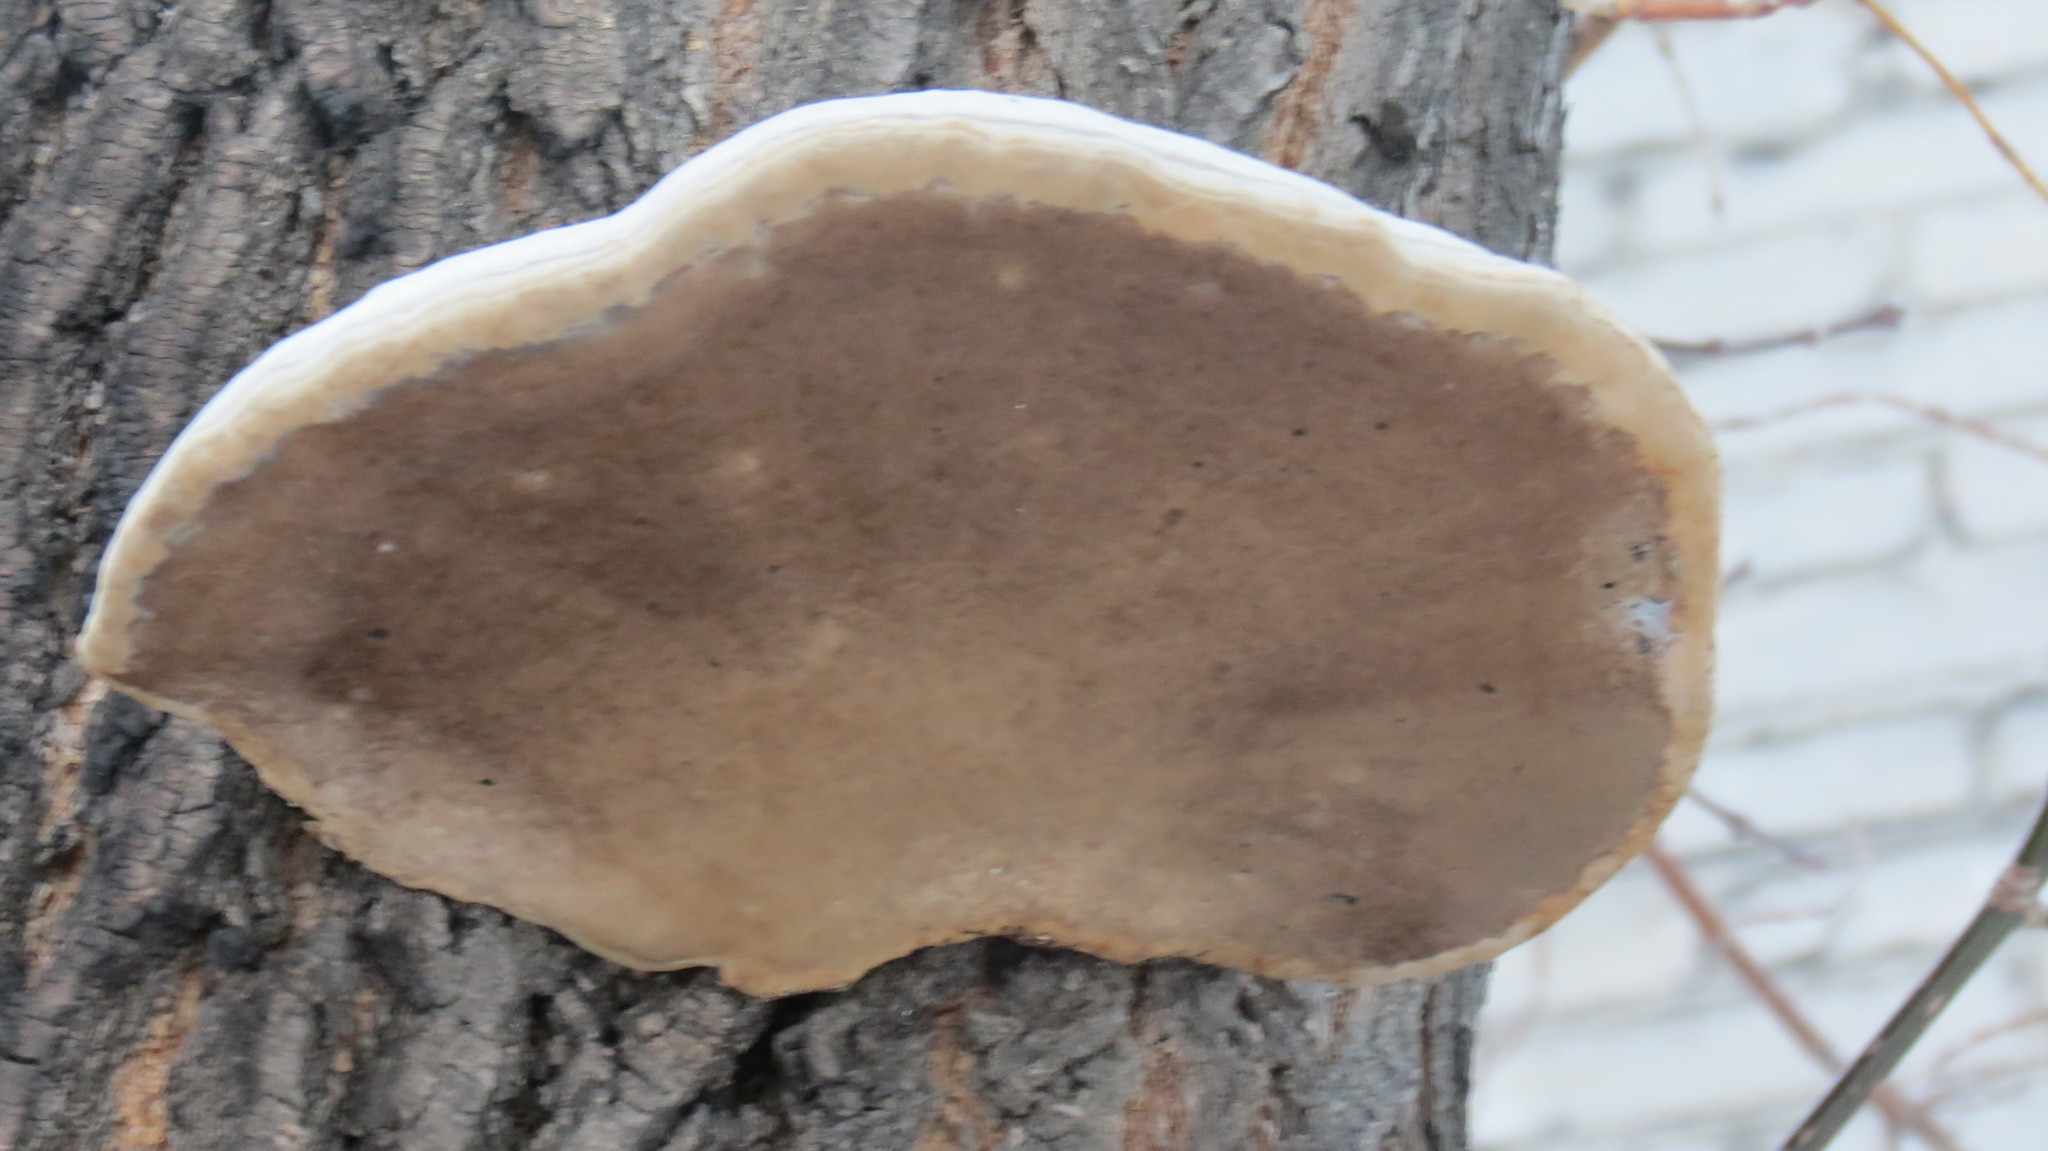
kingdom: Fungi
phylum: Basidiomycota
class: Agaricomycetes
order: Polyporales
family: Polyporaceae
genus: Fomes
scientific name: Fomes fomentarius
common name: Hoof fungus
